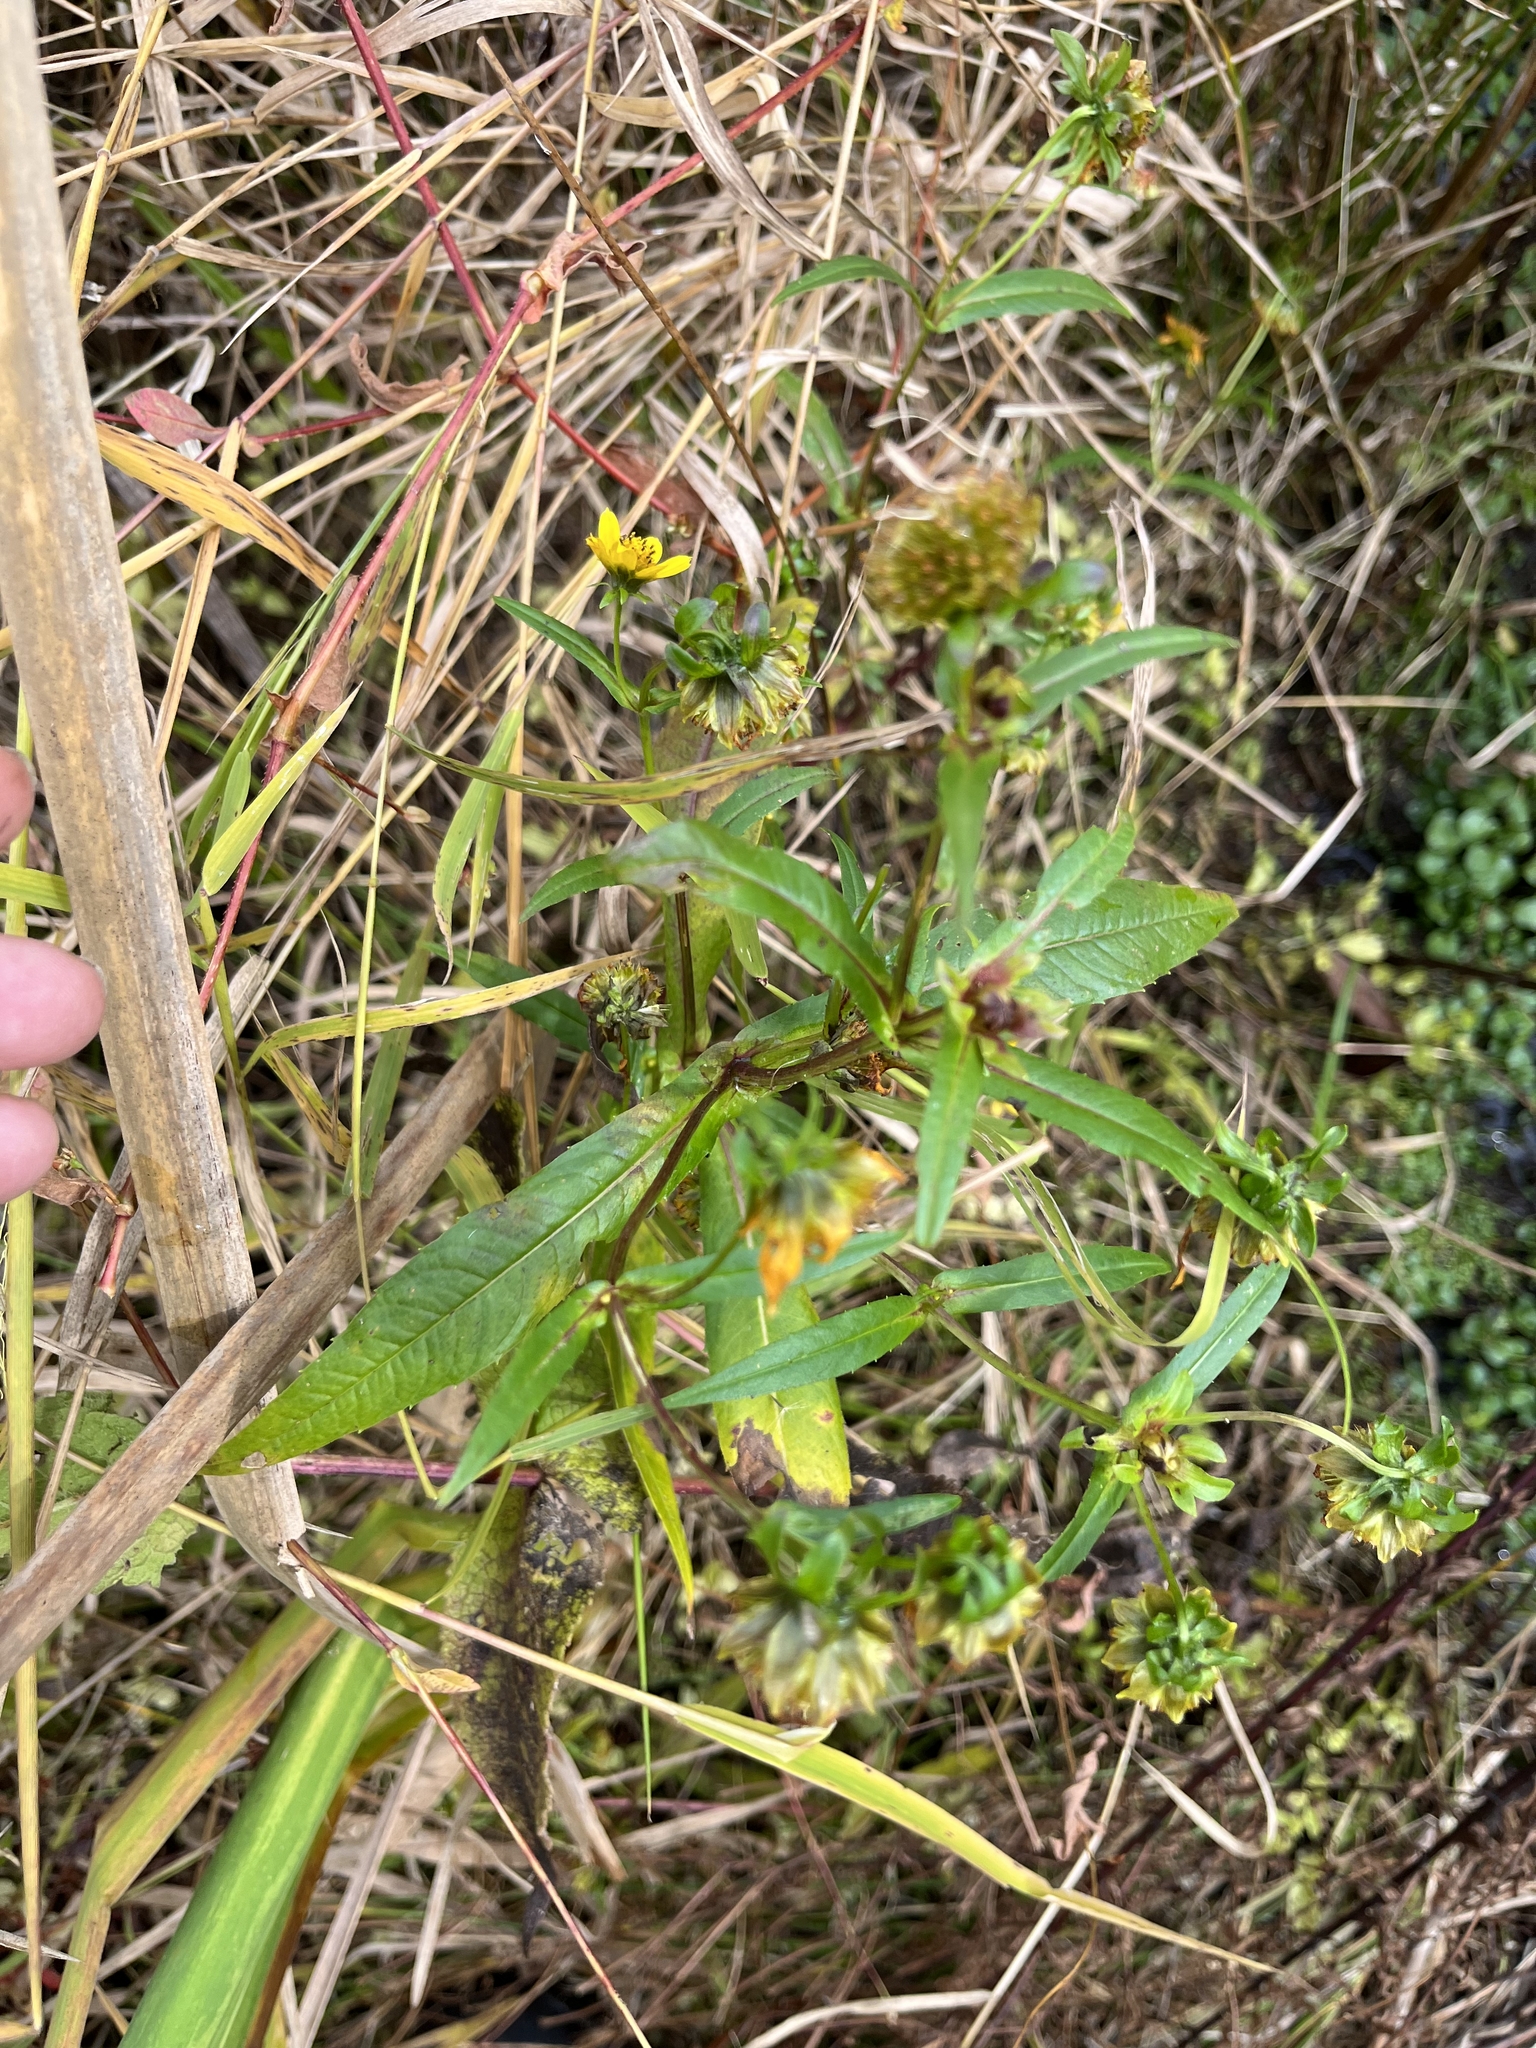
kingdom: Plantae
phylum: Tracheophyta
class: Magnoliopsida
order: Asterales
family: Asteraceae
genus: Bidens
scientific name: Bidens cernua
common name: Nodding bur-marigold
